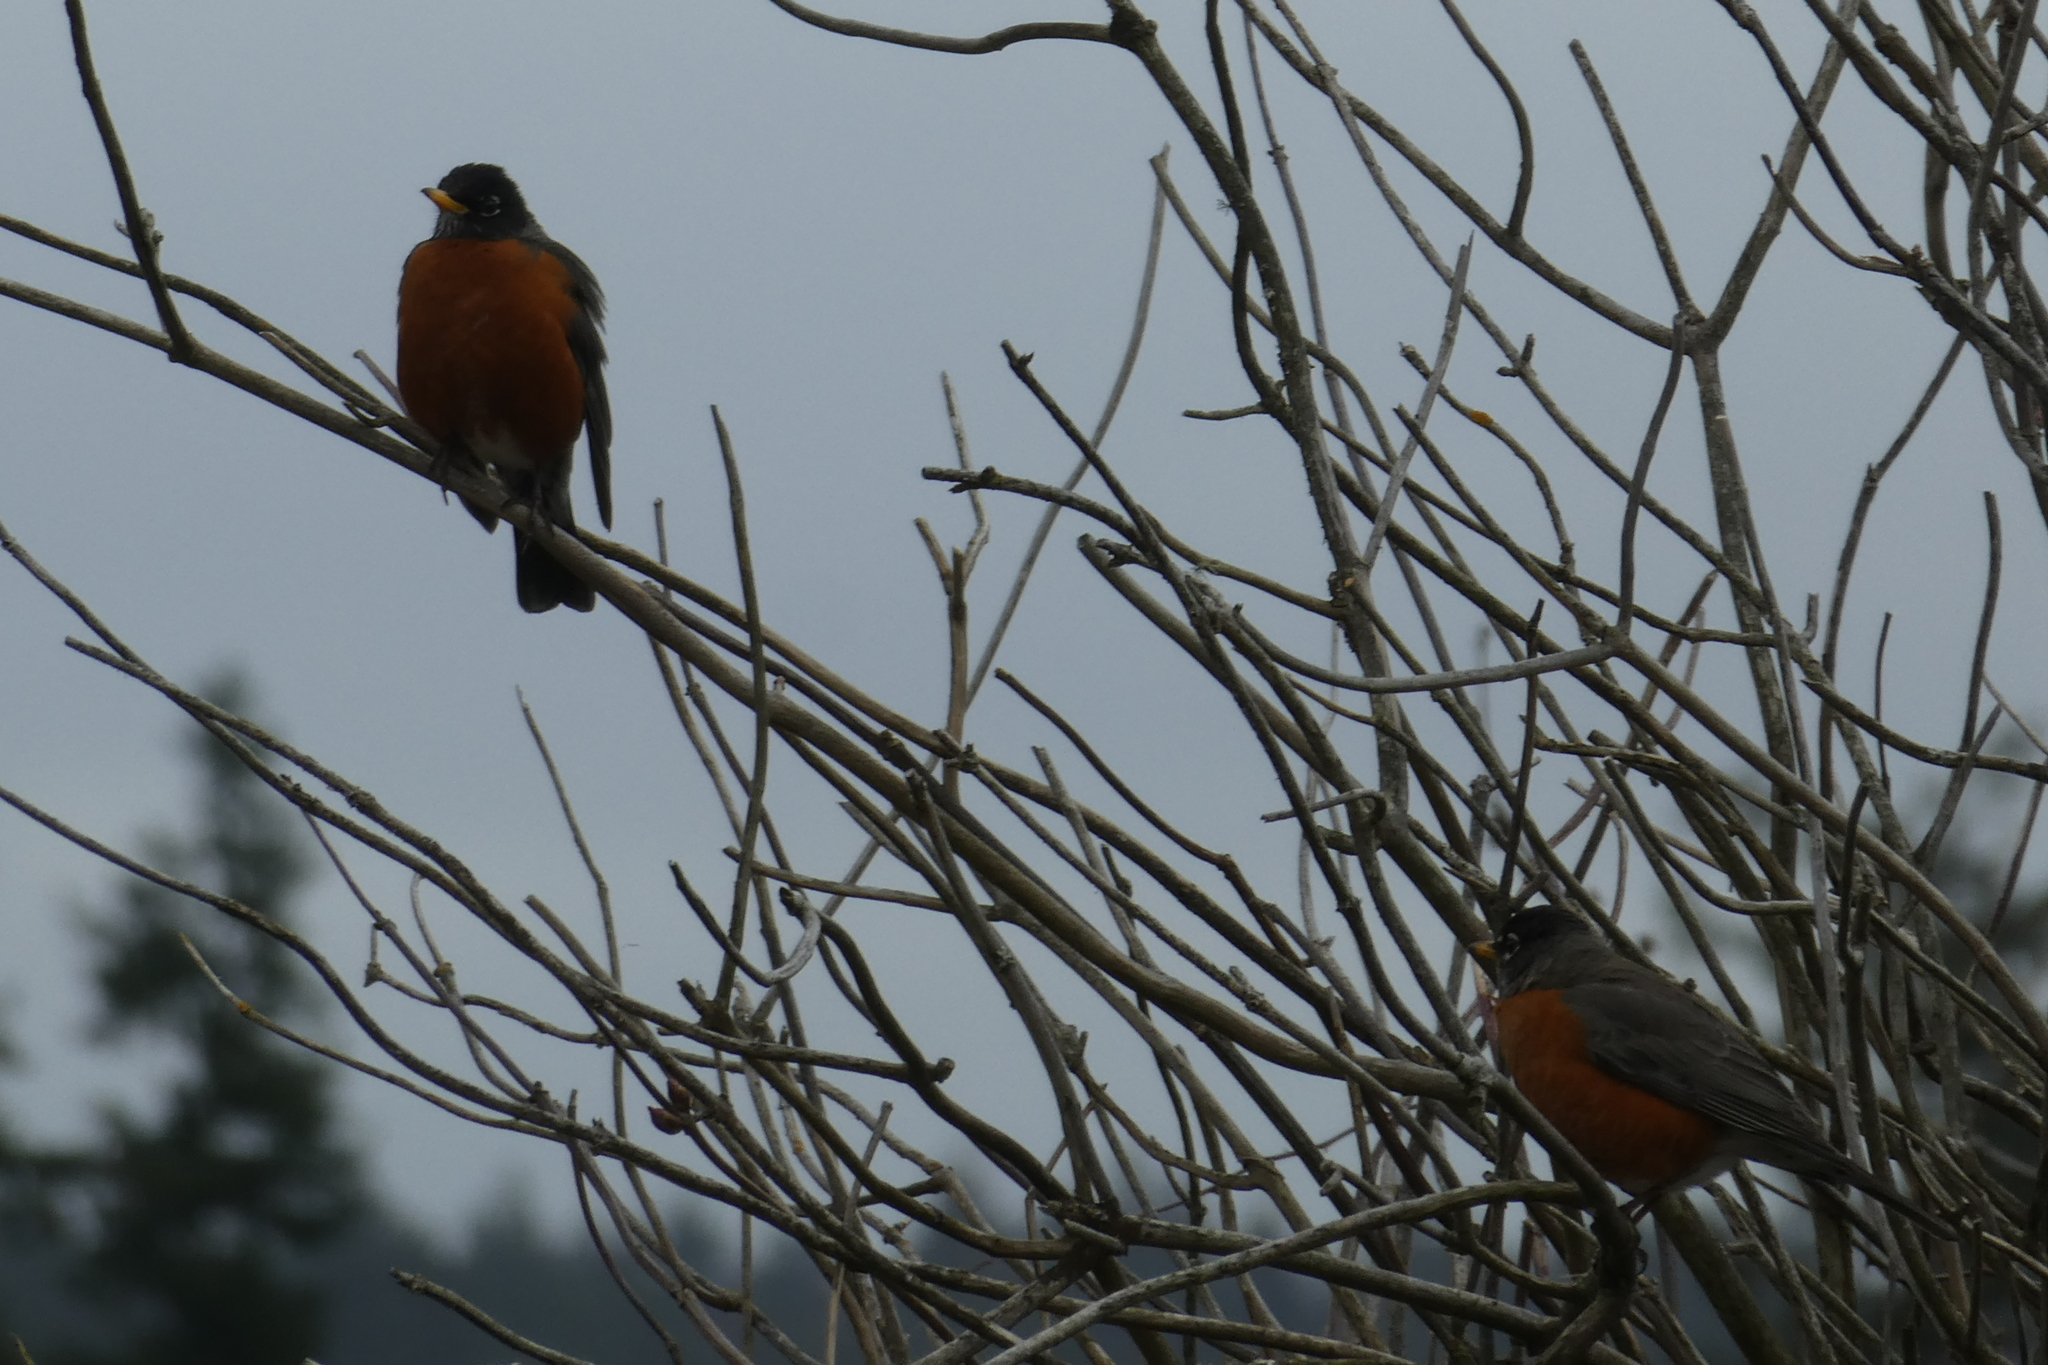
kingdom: Animalia
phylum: Chordata
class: Aves
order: Passeriformes
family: Turdidae
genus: Turdus
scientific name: Turdus migratorius
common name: American robin
